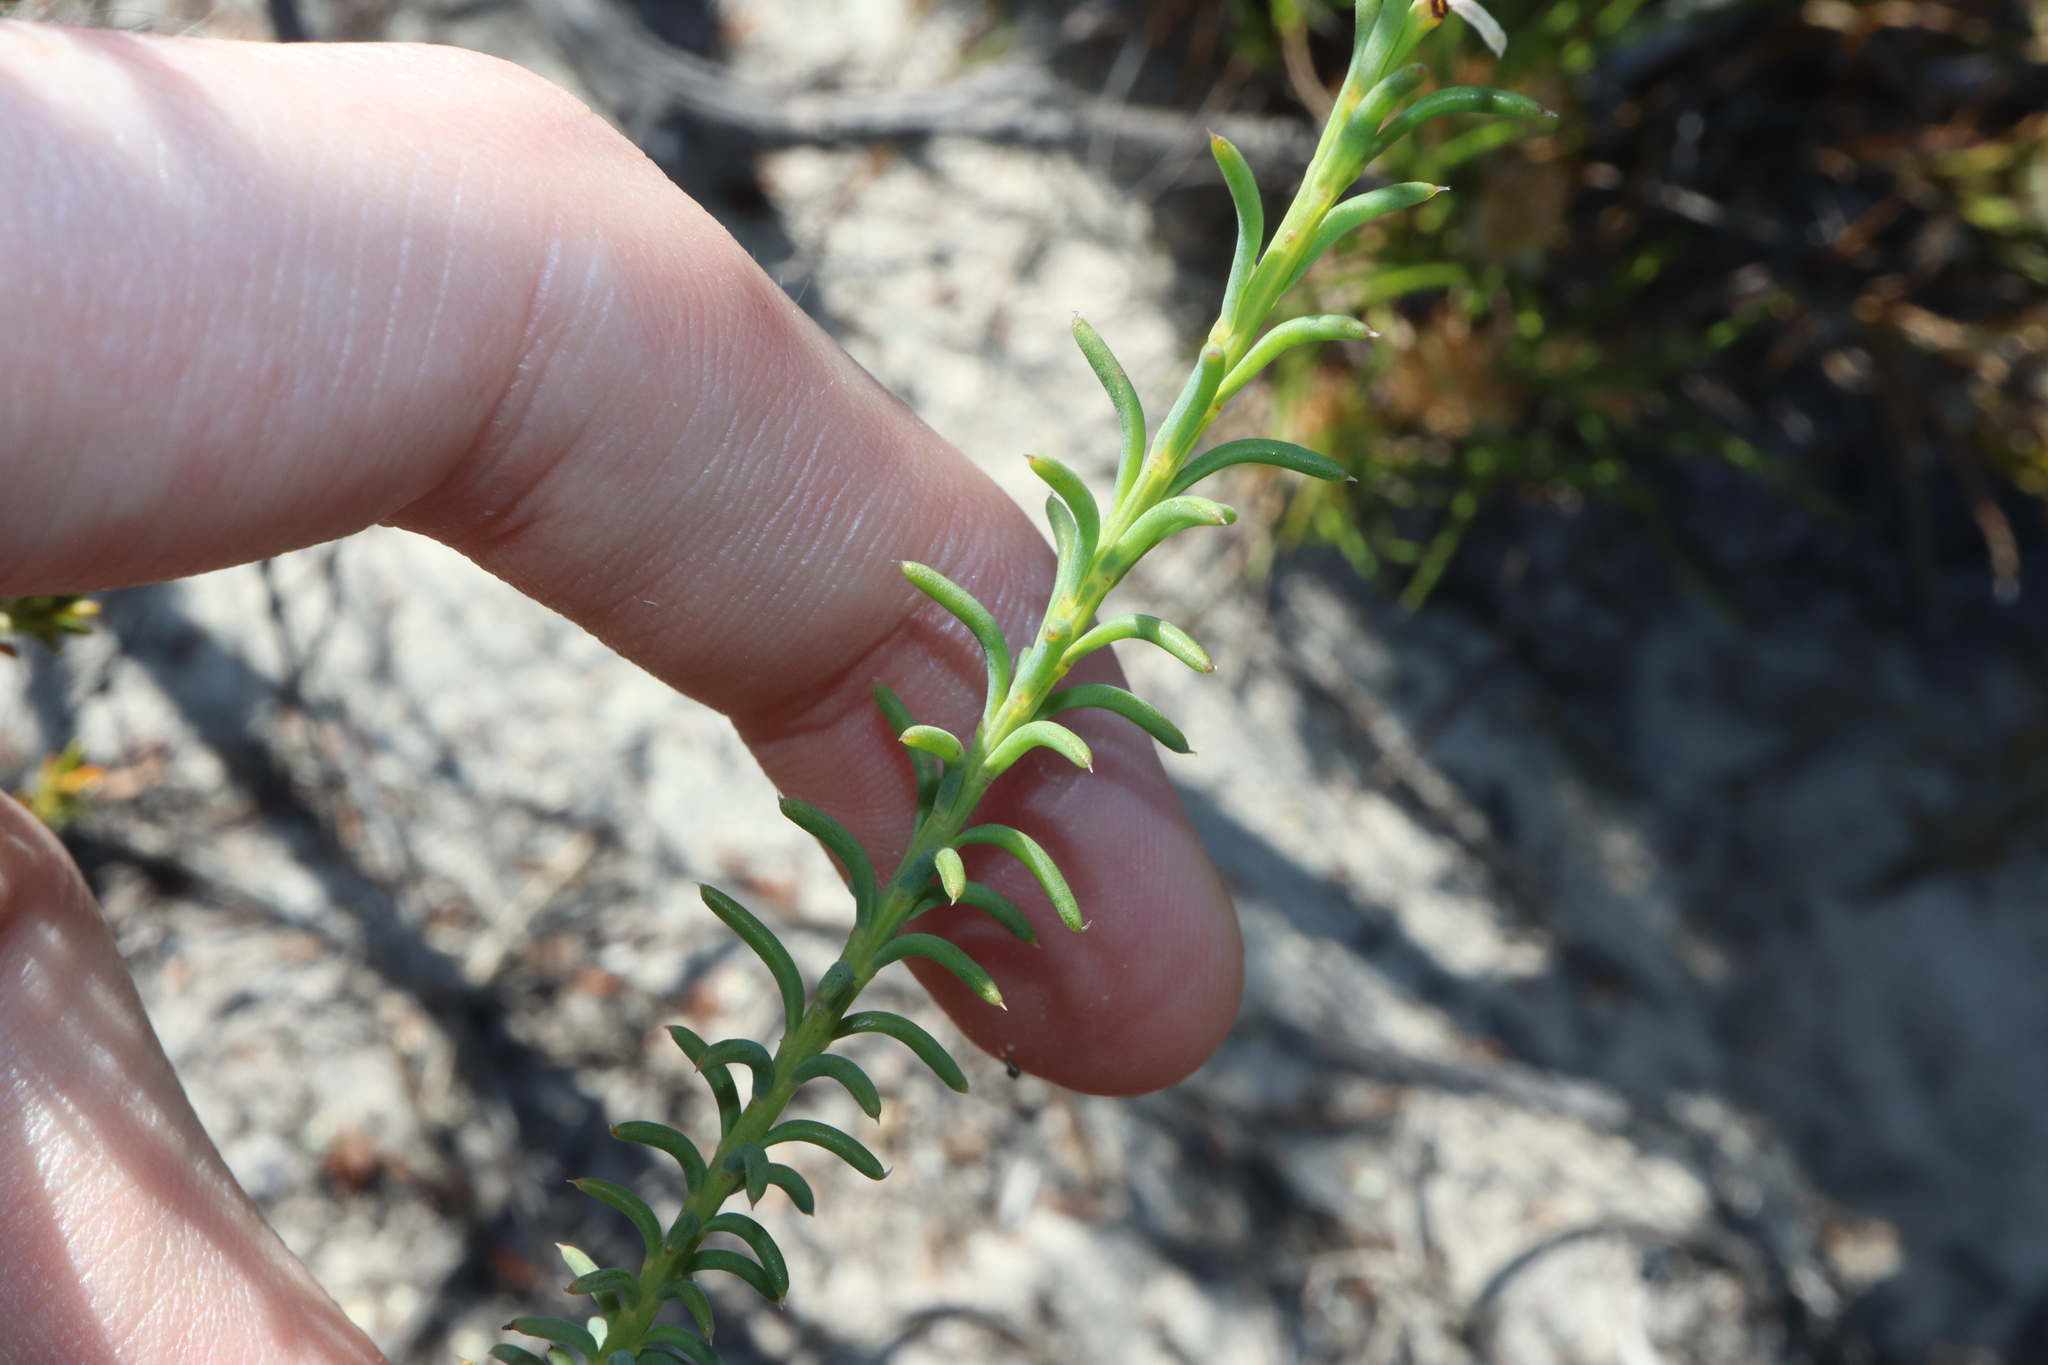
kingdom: Plantae
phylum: Tracheophyta
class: Magnoliopsida
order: Asterales
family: Goodeniaceae
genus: Lechenaultia
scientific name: Lechenaultia heteromera
